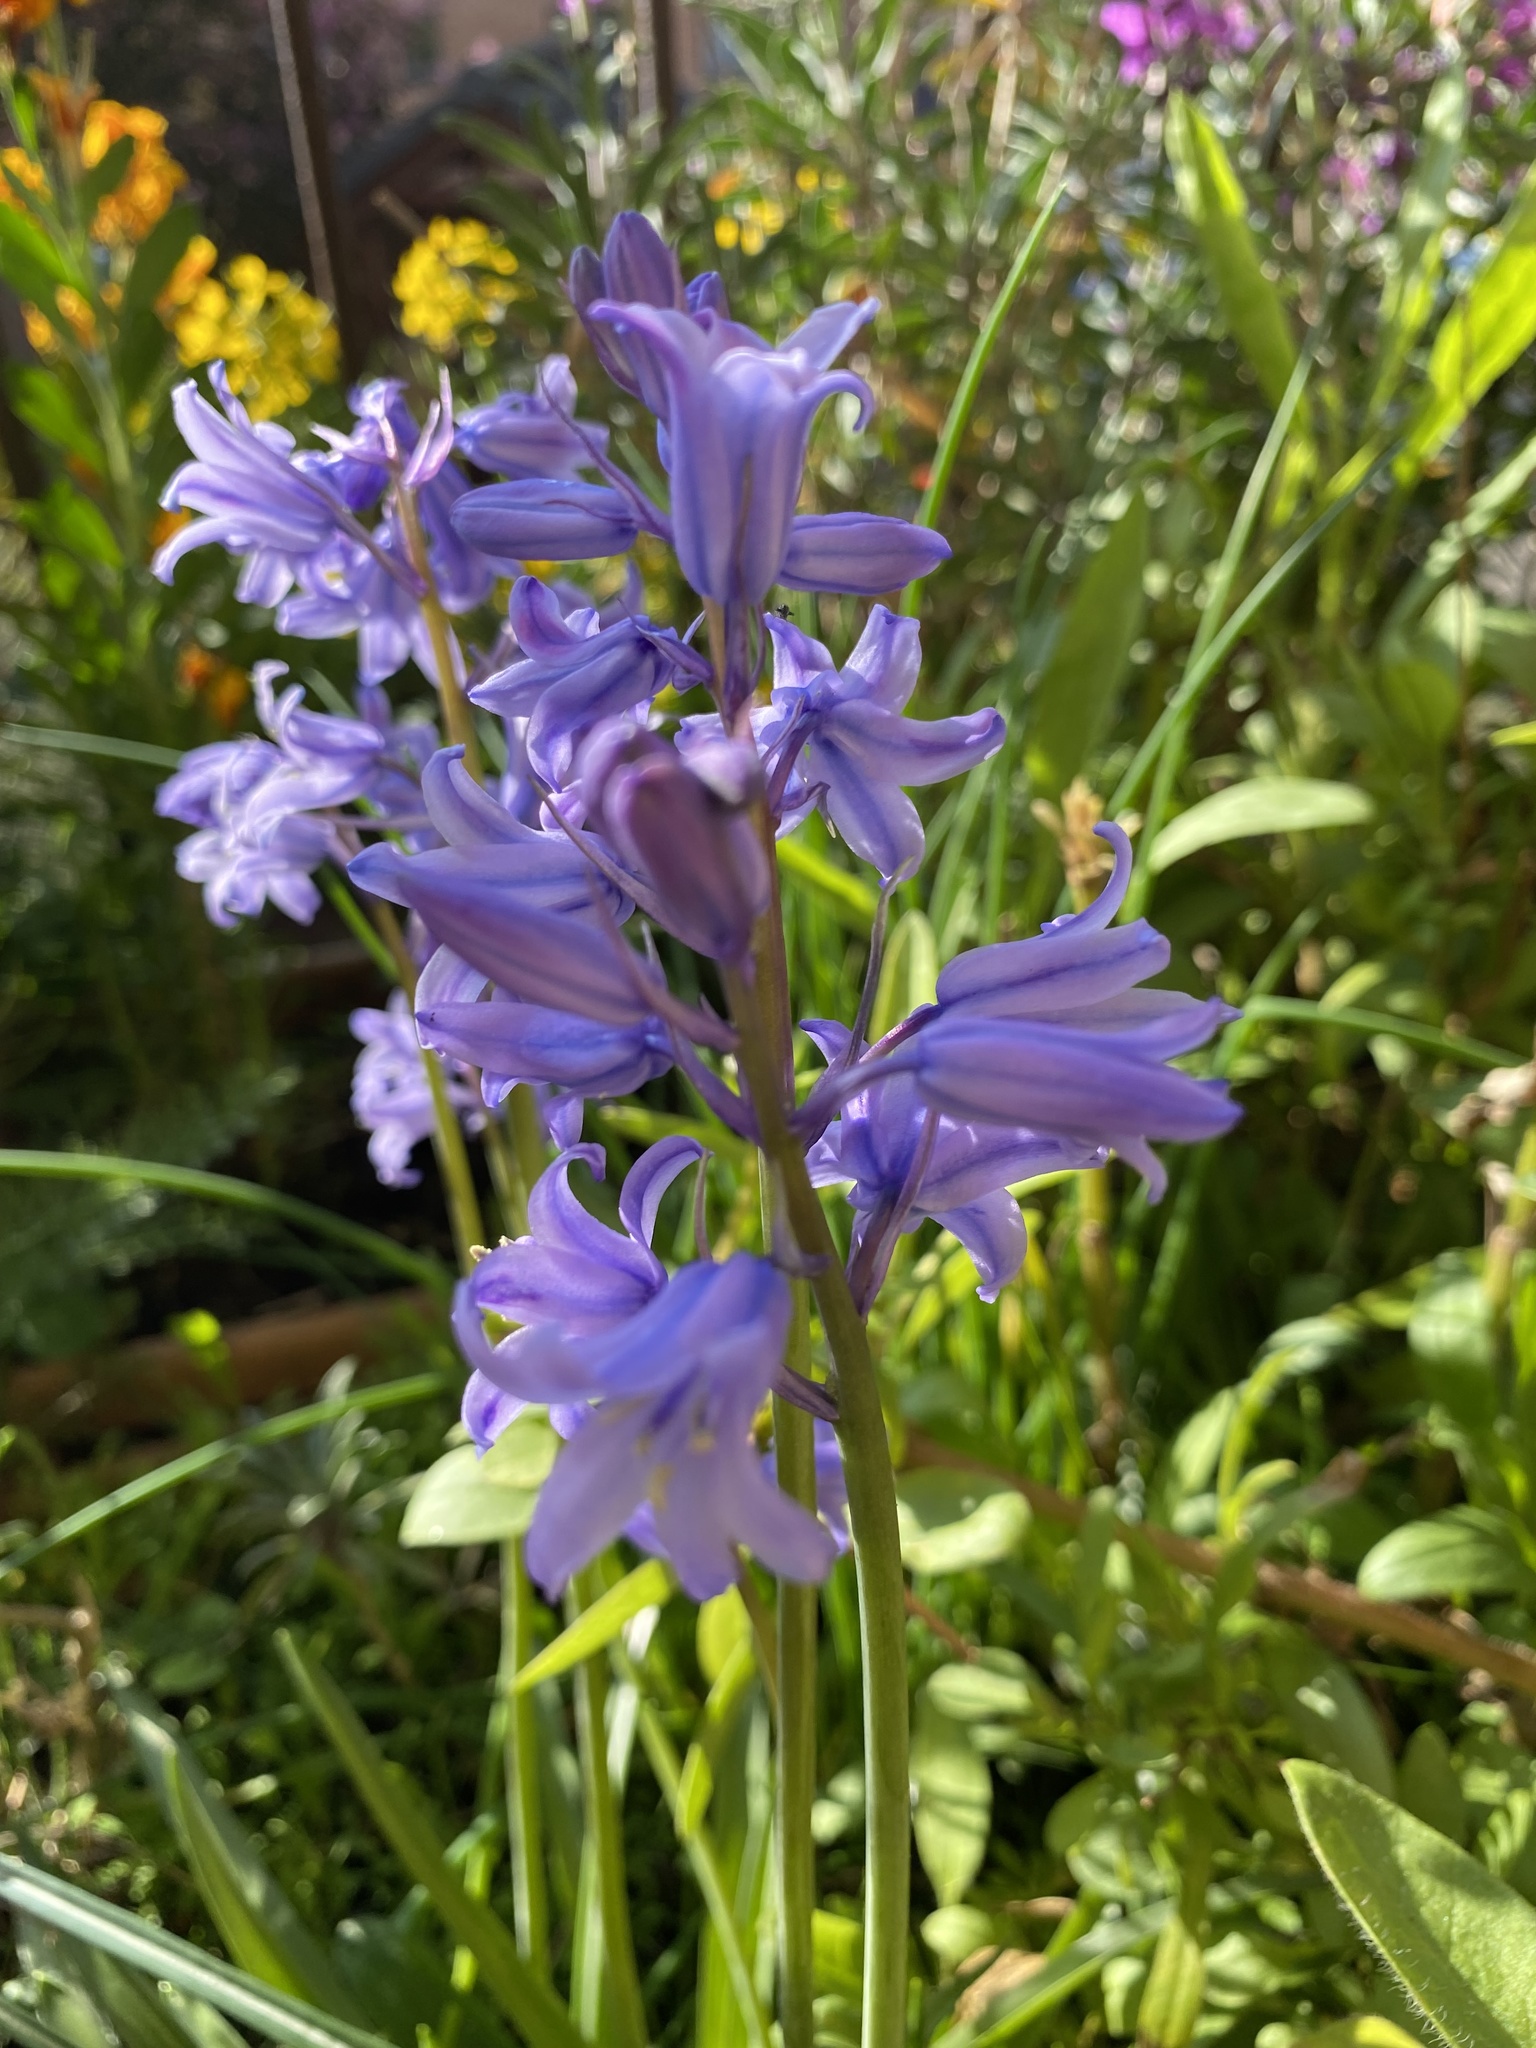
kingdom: Plantae
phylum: Tracheophyta
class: Liliopsida
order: Asparagales
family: Asparagaceae
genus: Hyacinthoides
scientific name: Hyacinthoides hispanica
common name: Spanish bluebell
